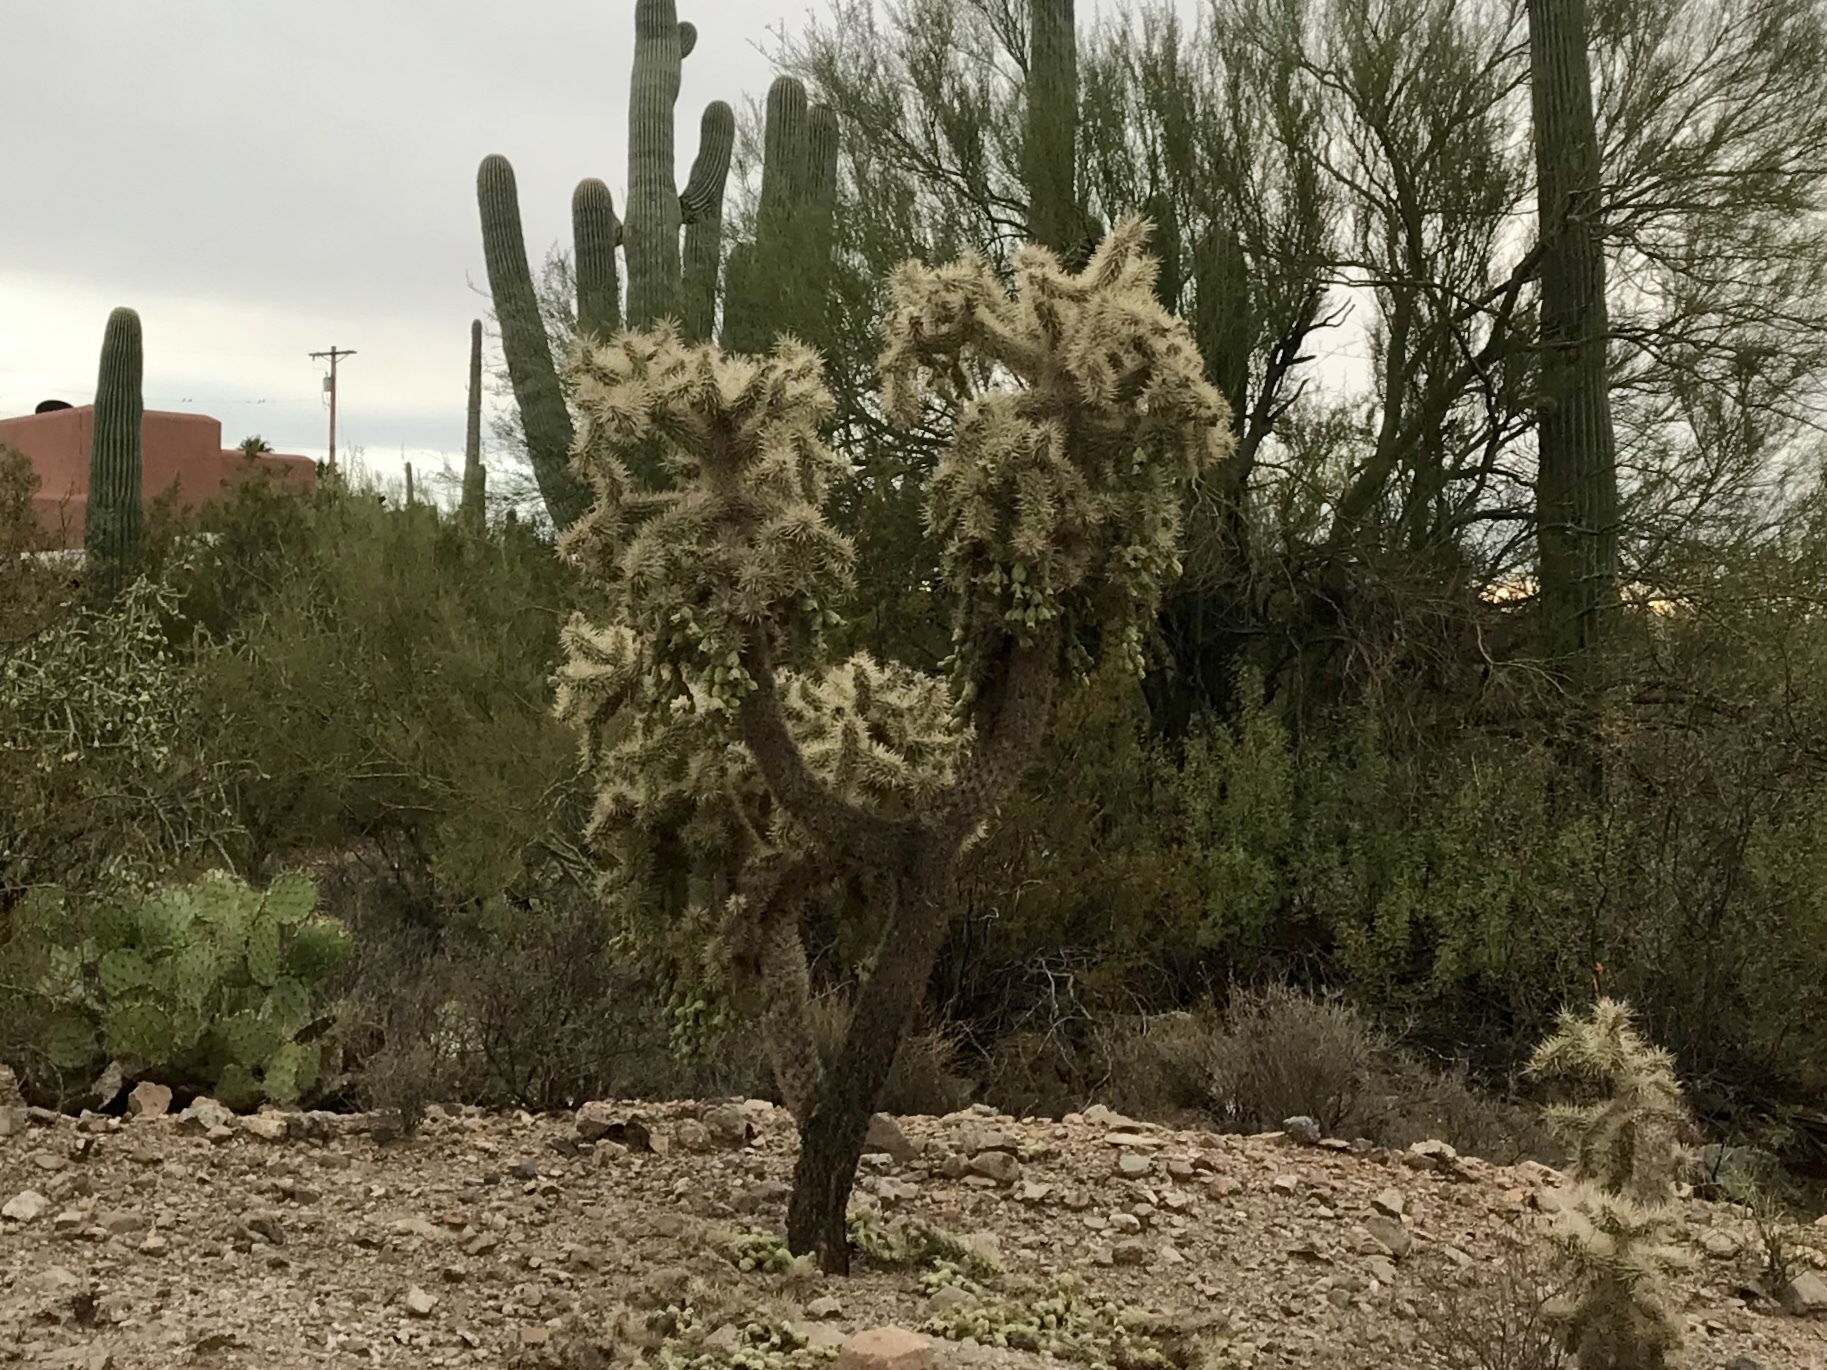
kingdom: Plantae
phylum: Tracheophyta
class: Magnoliopsida
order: Caryophyllales
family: Cactaceae
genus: Cylindropuntia
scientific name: Cylindropuntia fulgida
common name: Jumping cholla
